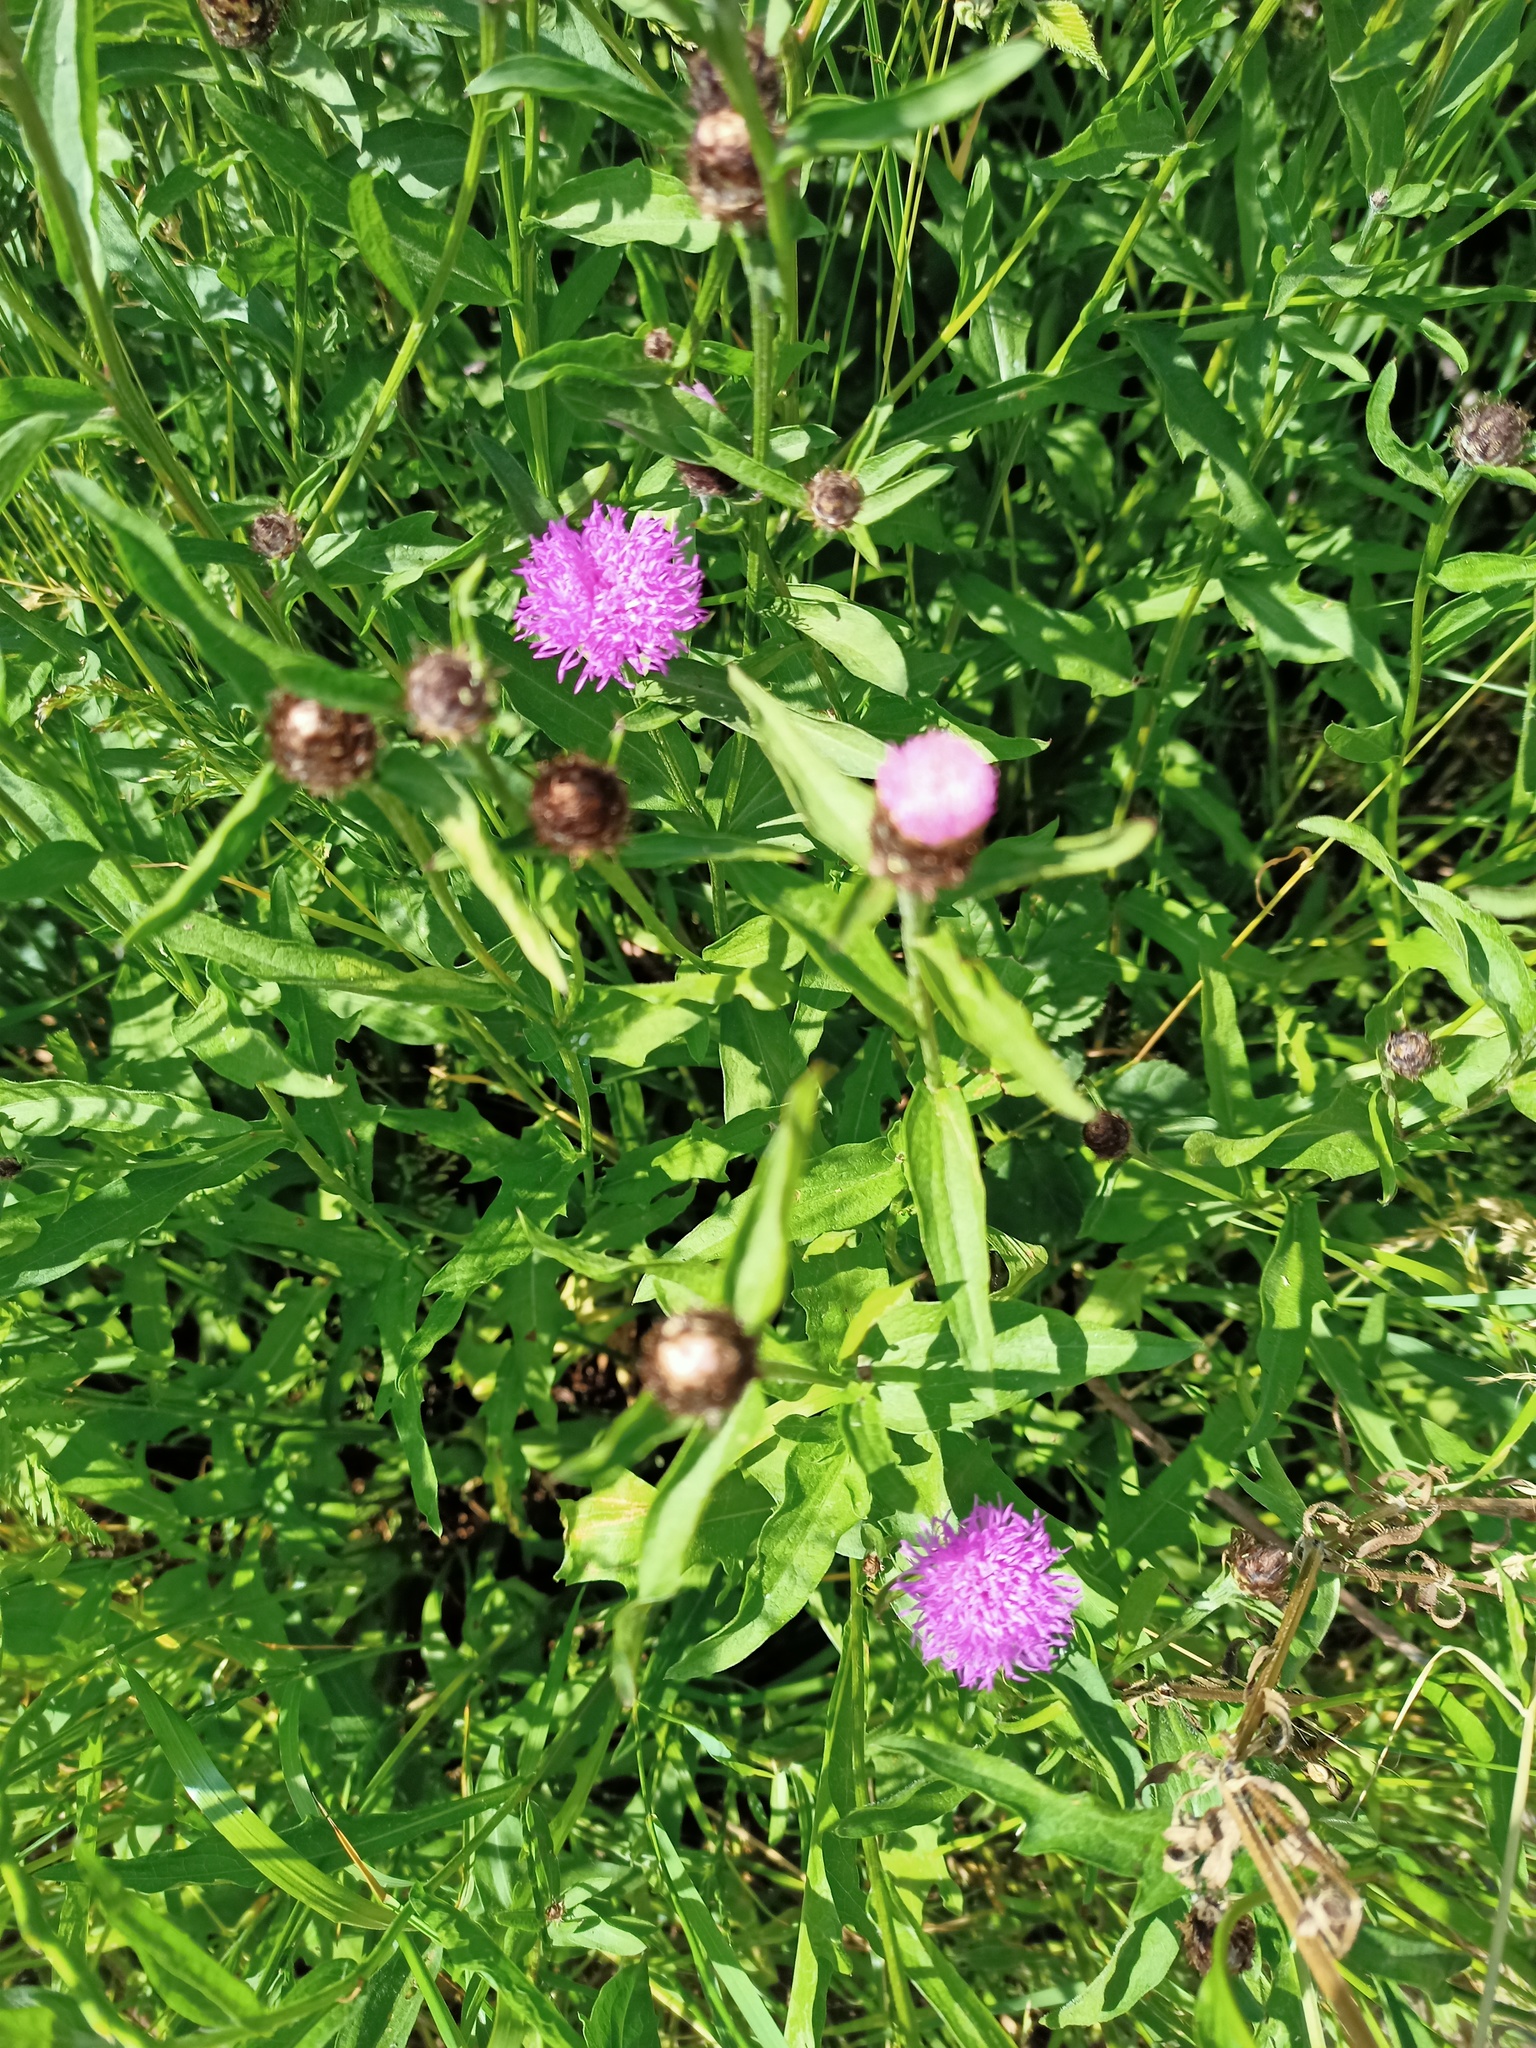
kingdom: Plantae
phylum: Tracheophyta
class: Magnoliopsida
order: Asterales
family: Asteraceae
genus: Centaurea
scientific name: Centaurea nigra
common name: Lesser knapweed
